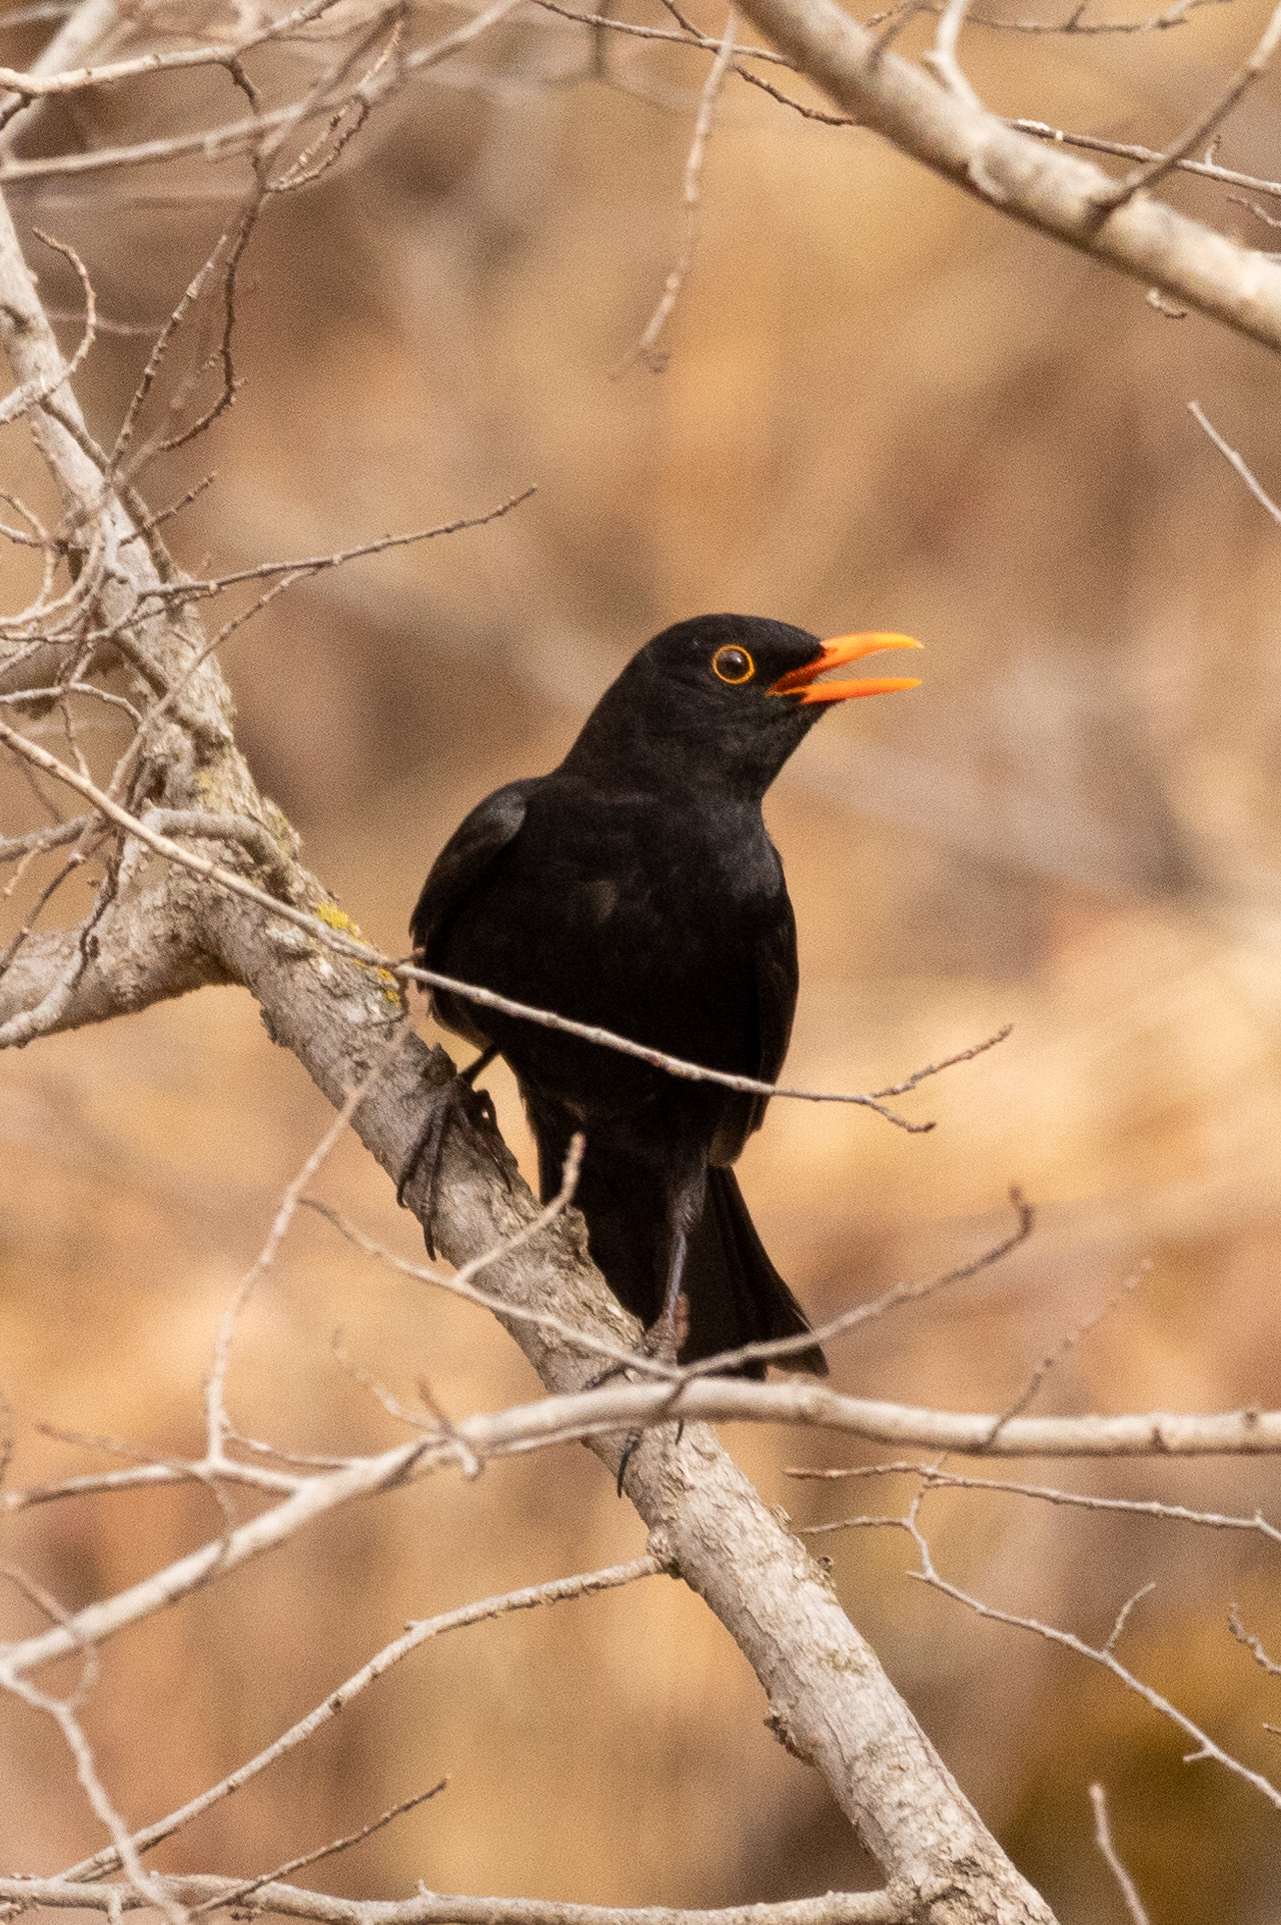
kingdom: Animalia
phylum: Chordata
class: Aves
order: Passeriformes
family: Turdidae
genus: Turdus
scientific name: Turdus merula
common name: Common blackbird
